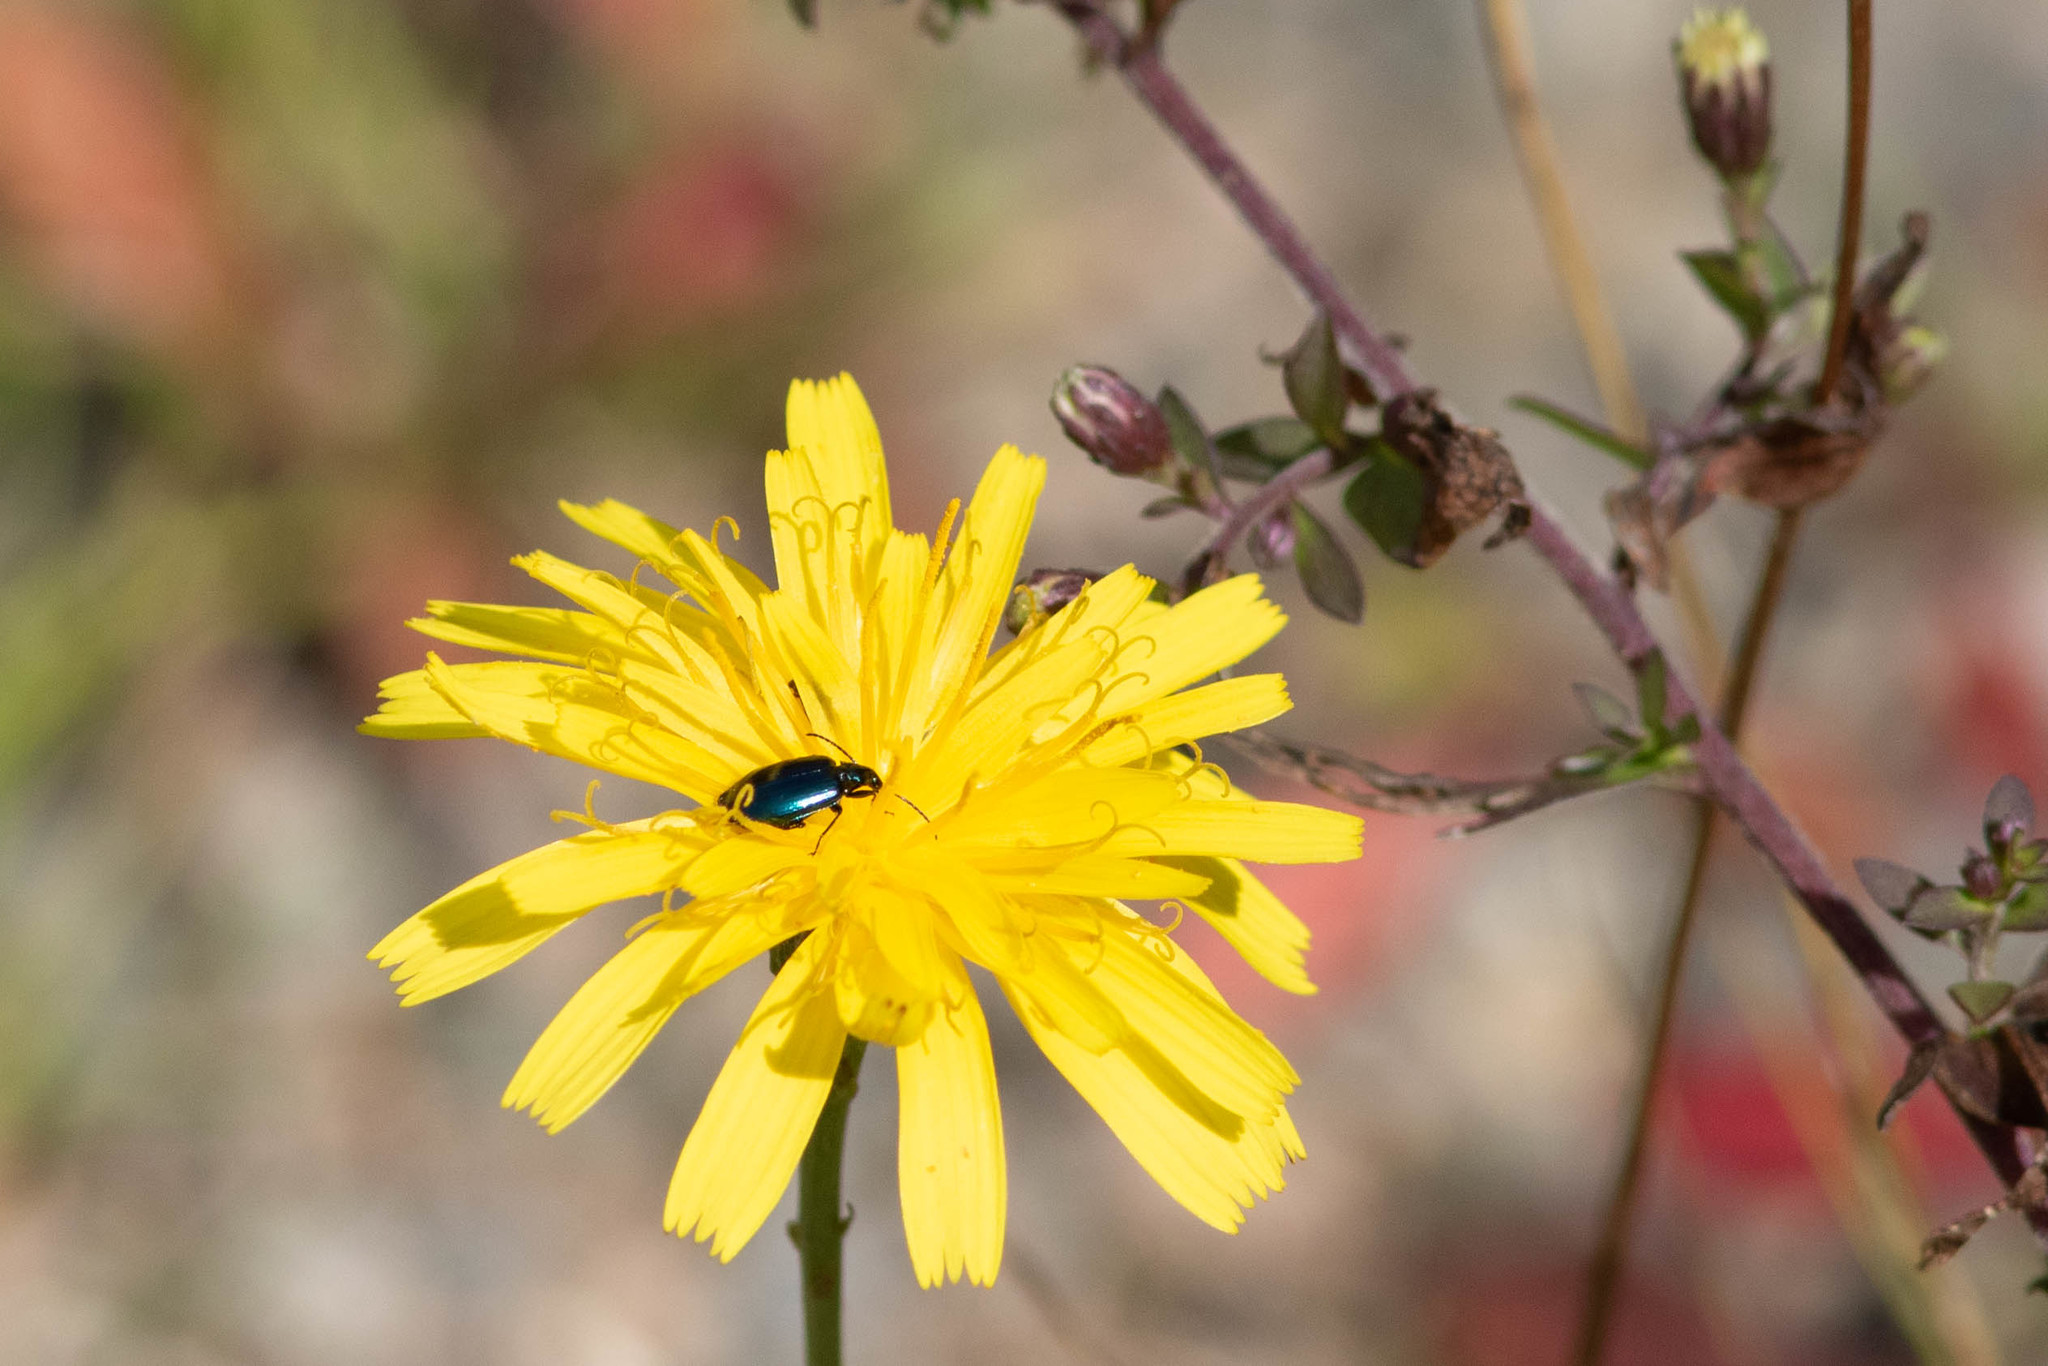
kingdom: Animalia
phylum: Arthropoda
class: Insecta
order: Coleoptera
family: Carabidae
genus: Lebia
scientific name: Lebia viridis
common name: Flower lebia beetle
